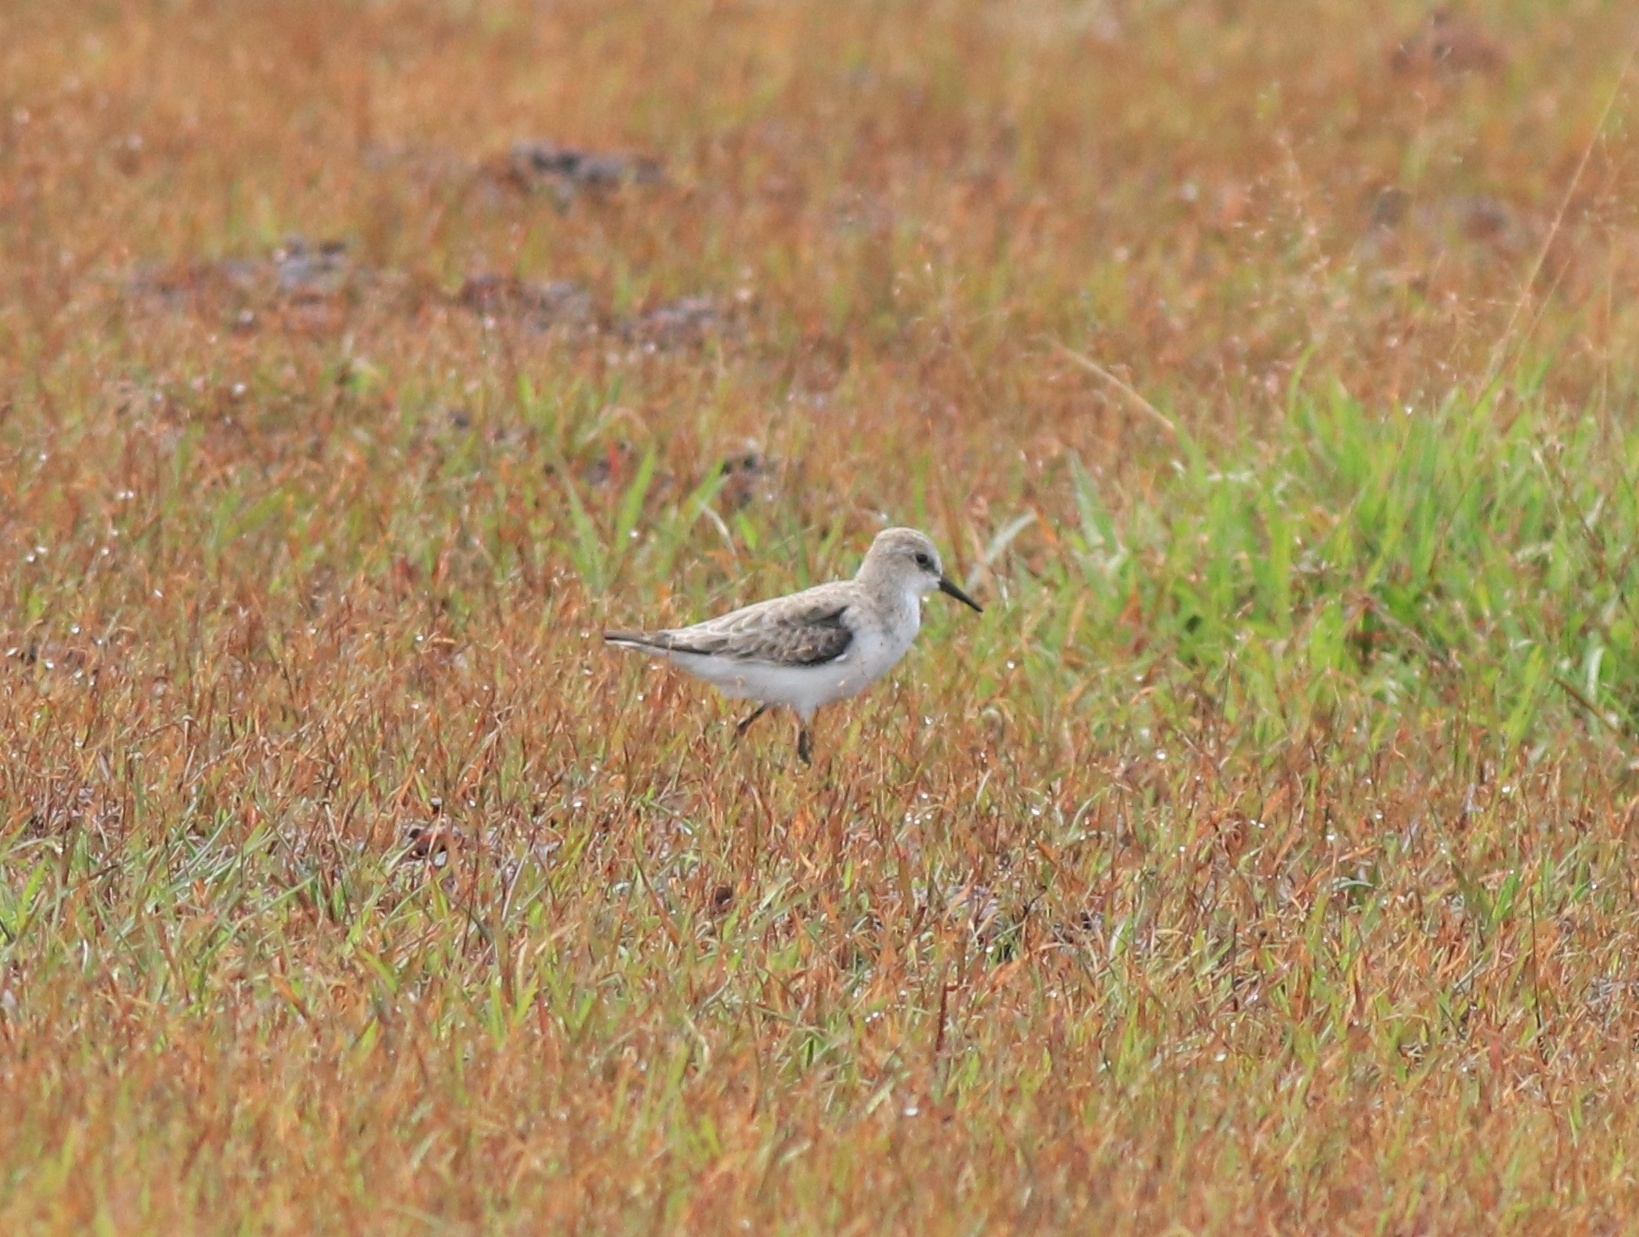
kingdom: Animalia
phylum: Chordata
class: Aves
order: Charadriiformes
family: Scolopacidae
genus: Calidris
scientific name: Calidris minuta
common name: Little stint
